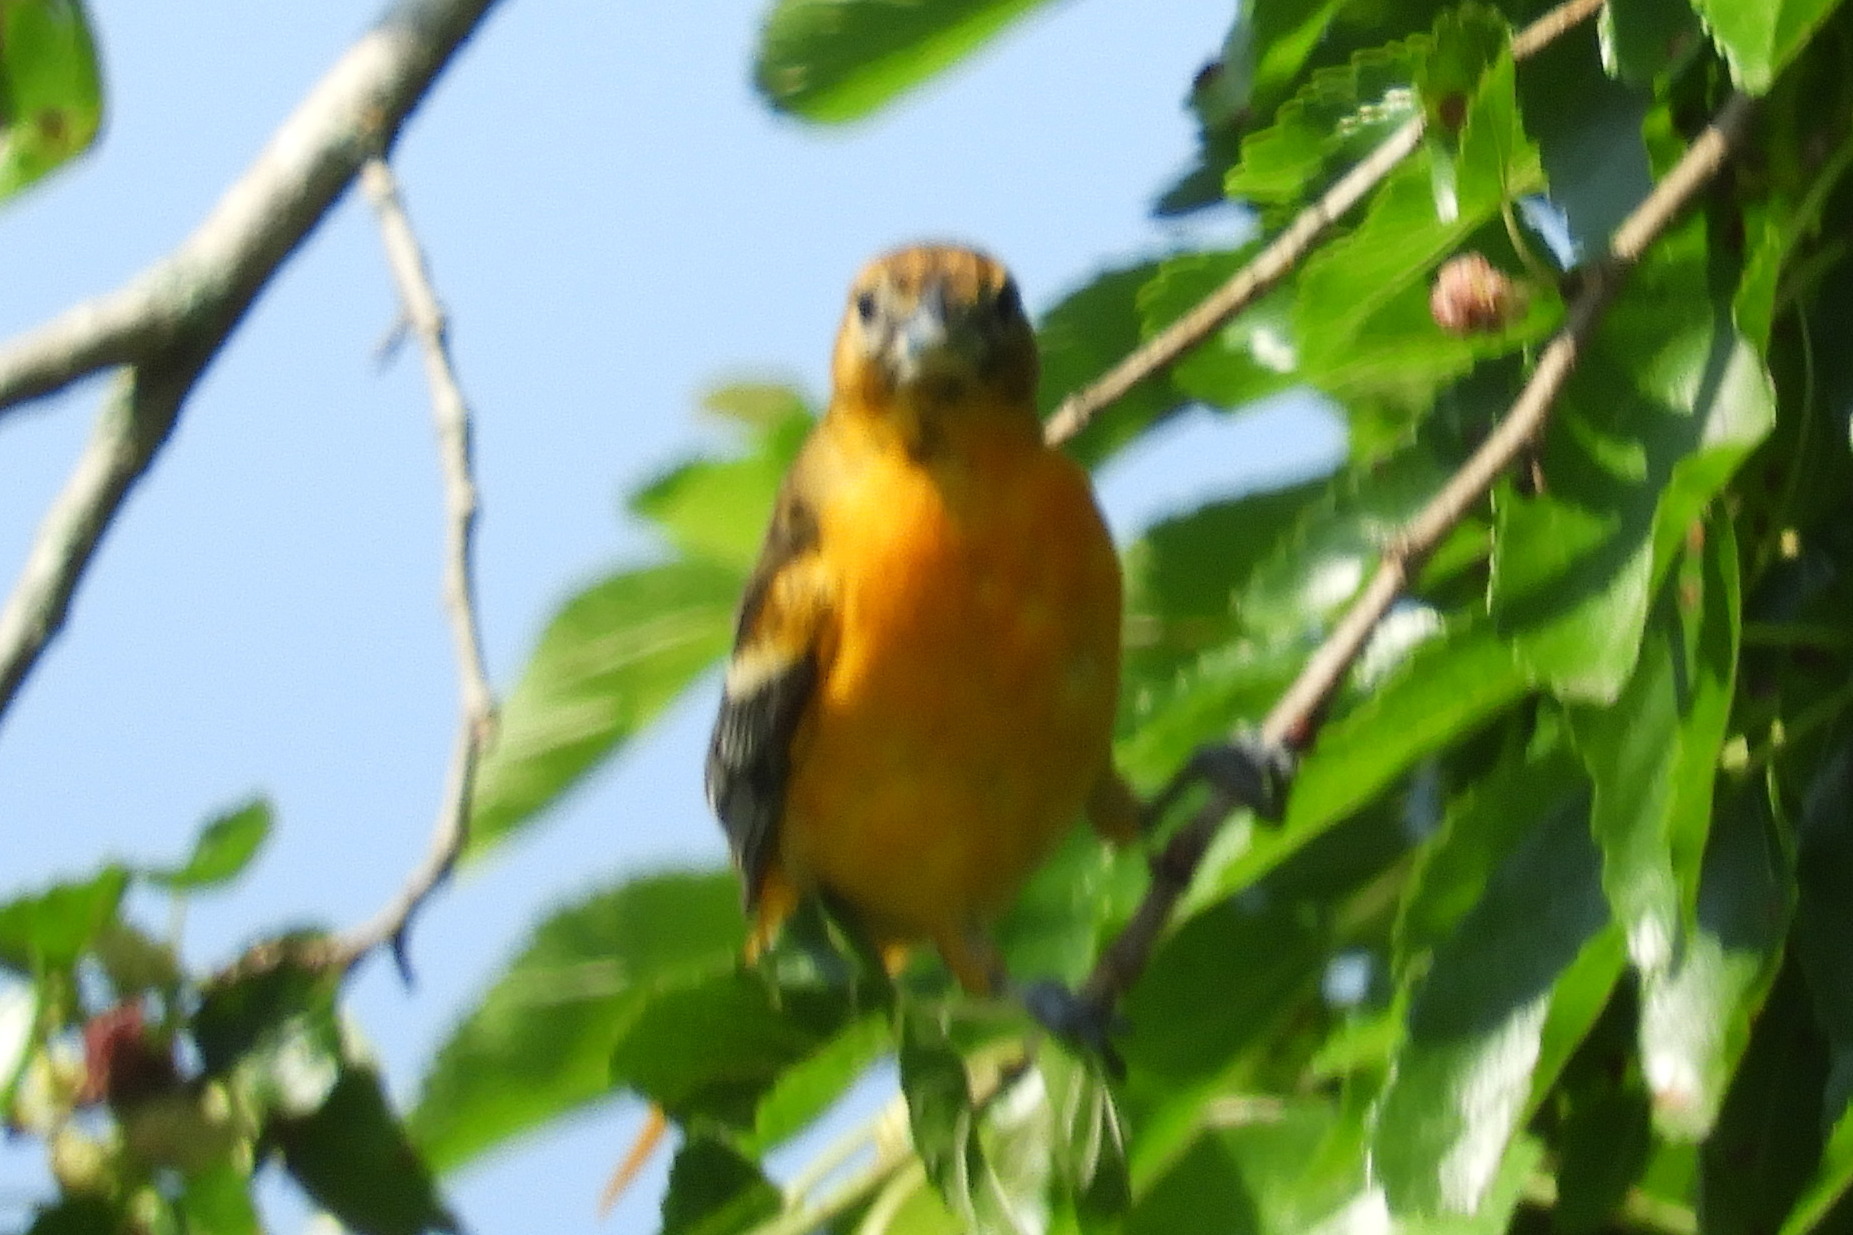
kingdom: Animalia
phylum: Chordata
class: Aves
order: Passeriformes
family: Icteridae
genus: Icterus
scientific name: Icterus galbula
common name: Baltimore oriole
